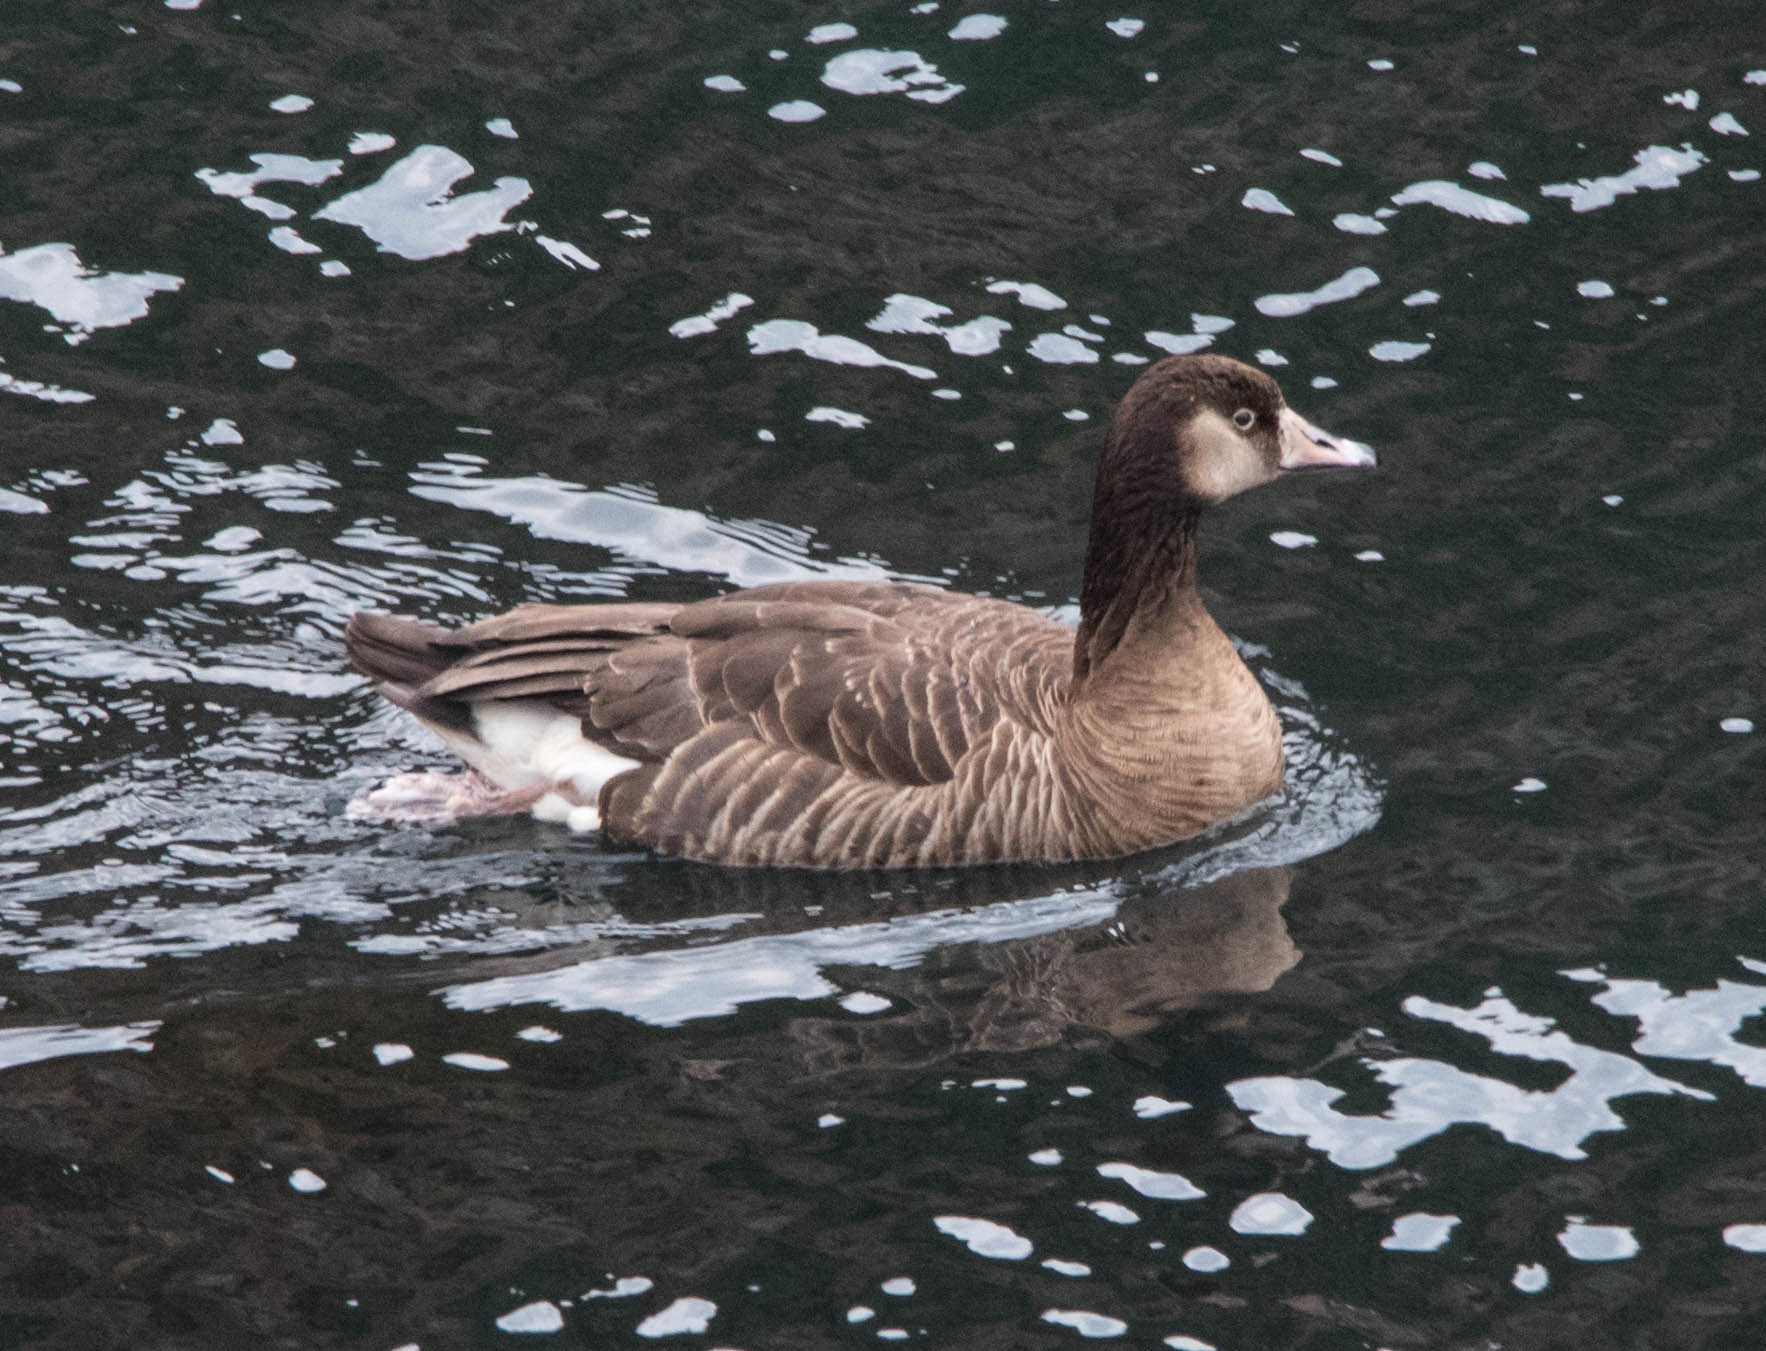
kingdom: Animalia
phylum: Chordata
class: Aves
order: Anseriformes
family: Anatidae
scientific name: Anatidae
